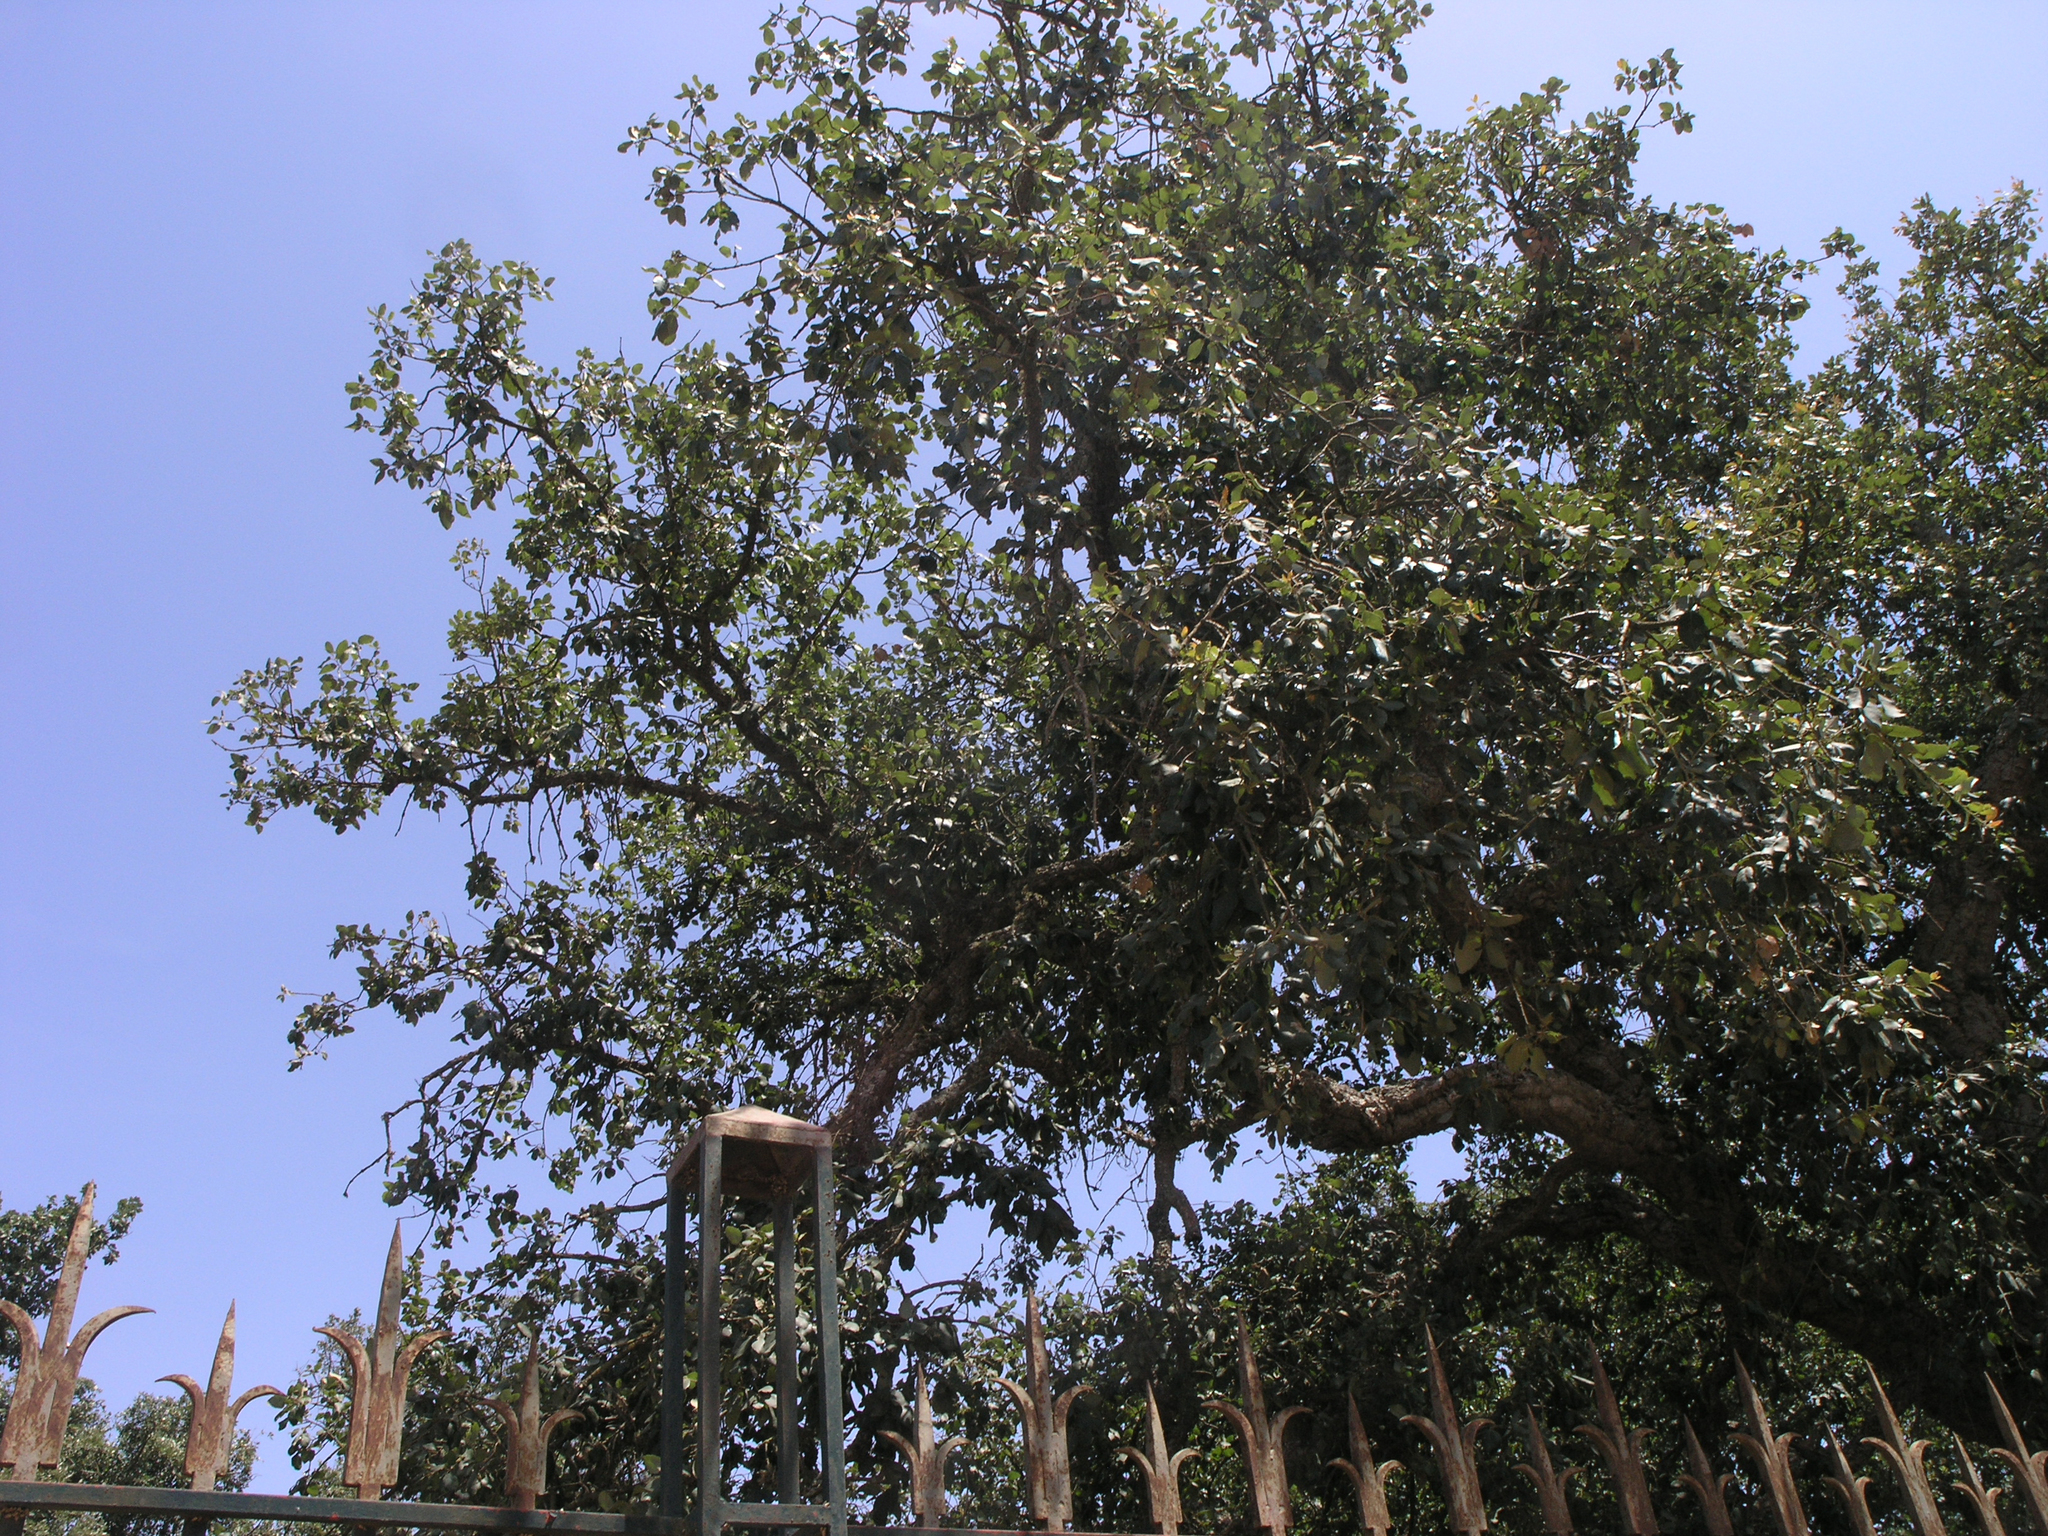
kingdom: Plantae
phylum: Tracheophyta
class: Magnoliopsida
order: Fagales
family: Fagaceae
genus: Quercus
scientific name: Quercus suber
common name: Cork oak
